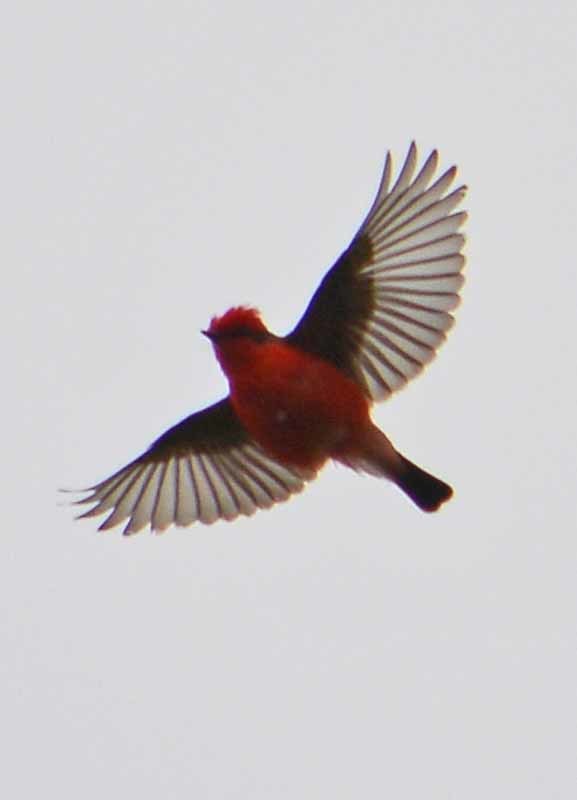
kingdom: Animalia
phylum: Chordata
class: Aves
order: Passeriformes
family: Tyrannidae
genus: Pyrocephalus
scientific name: Pyrocephalus rubinus
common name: Vermilion flycatcher
